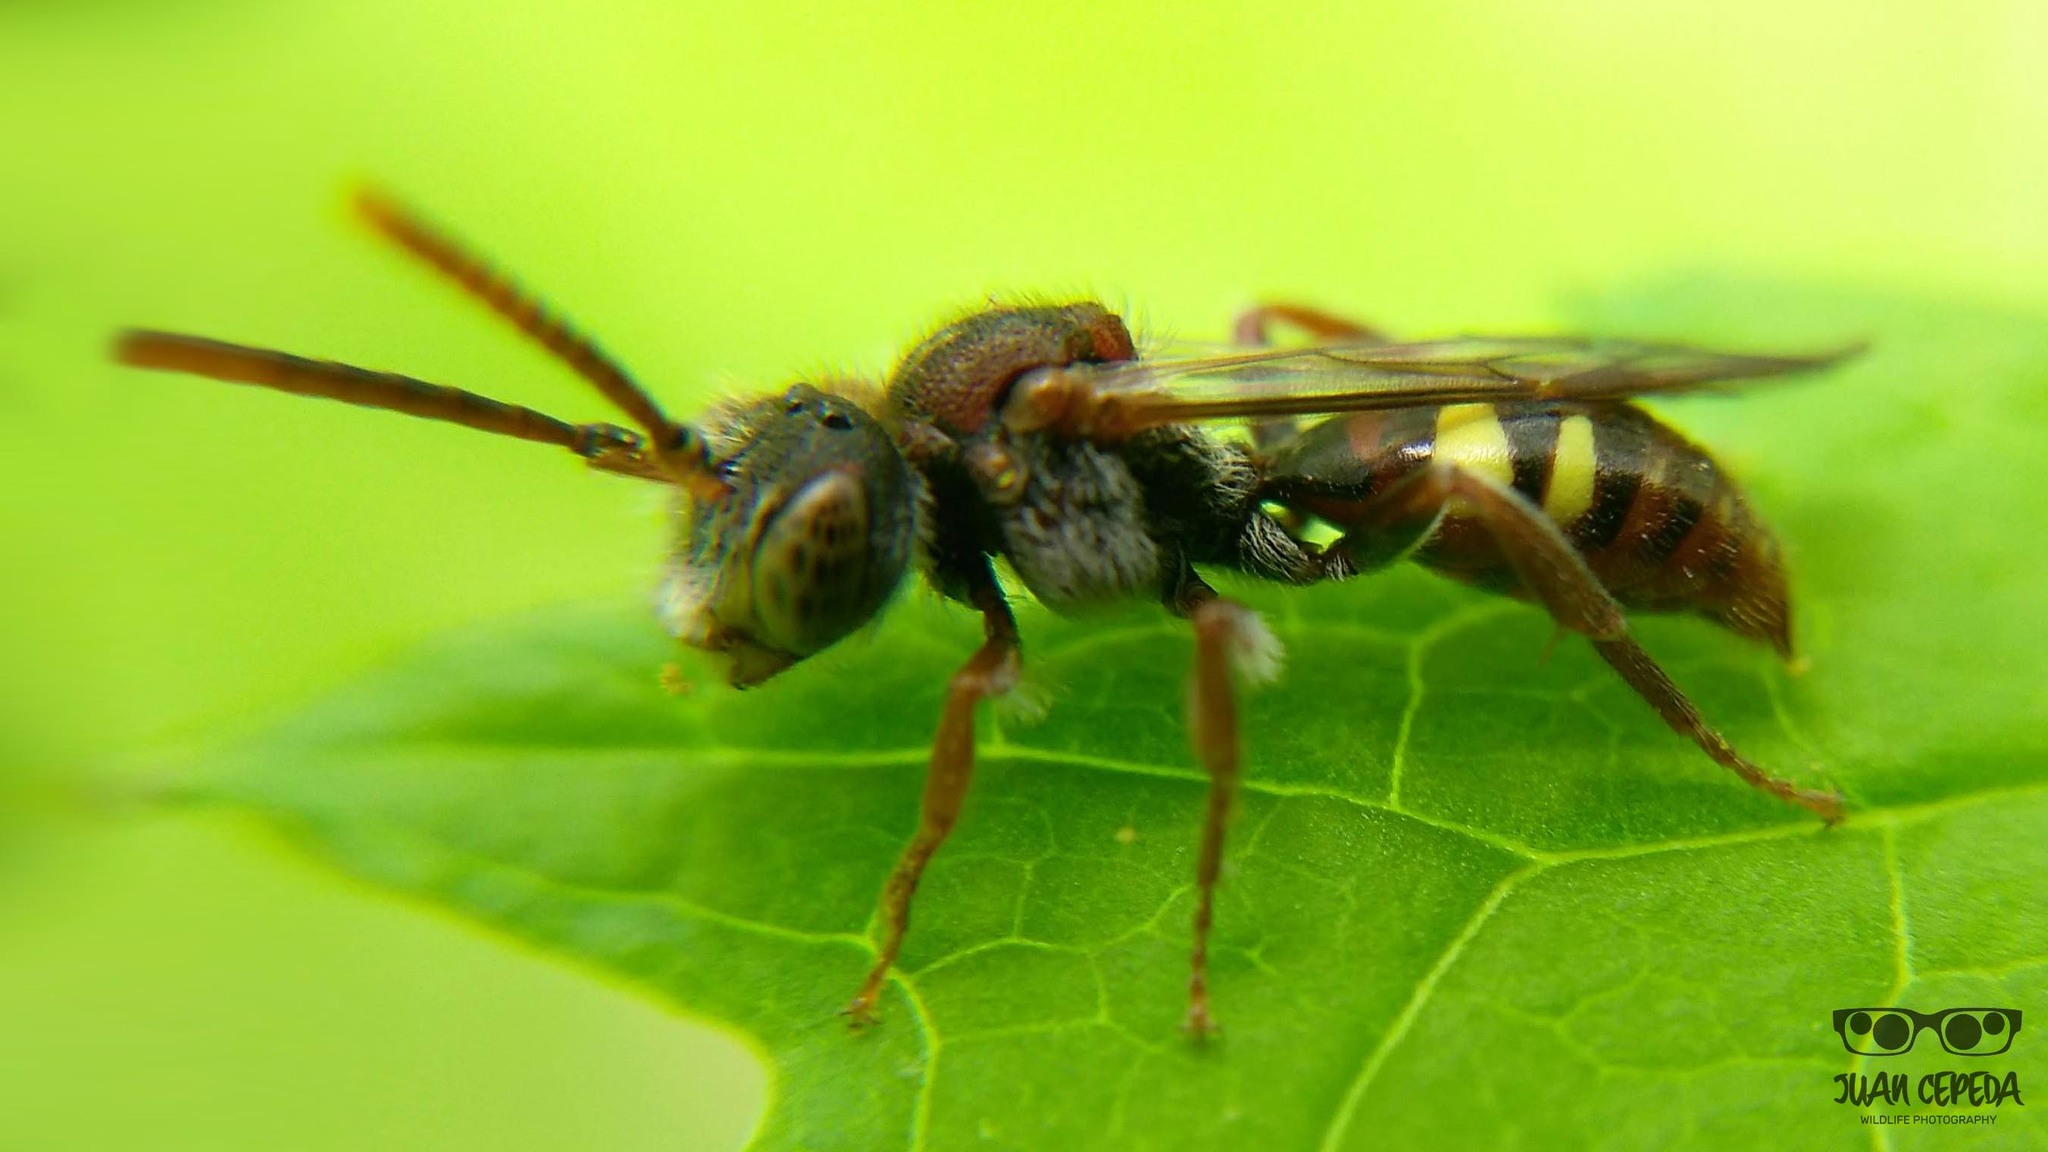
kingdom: Animalia
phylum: Arthropoda
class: Insecta
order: Hymenoptera
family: Apidae
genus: Nomada
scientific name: Nomada
